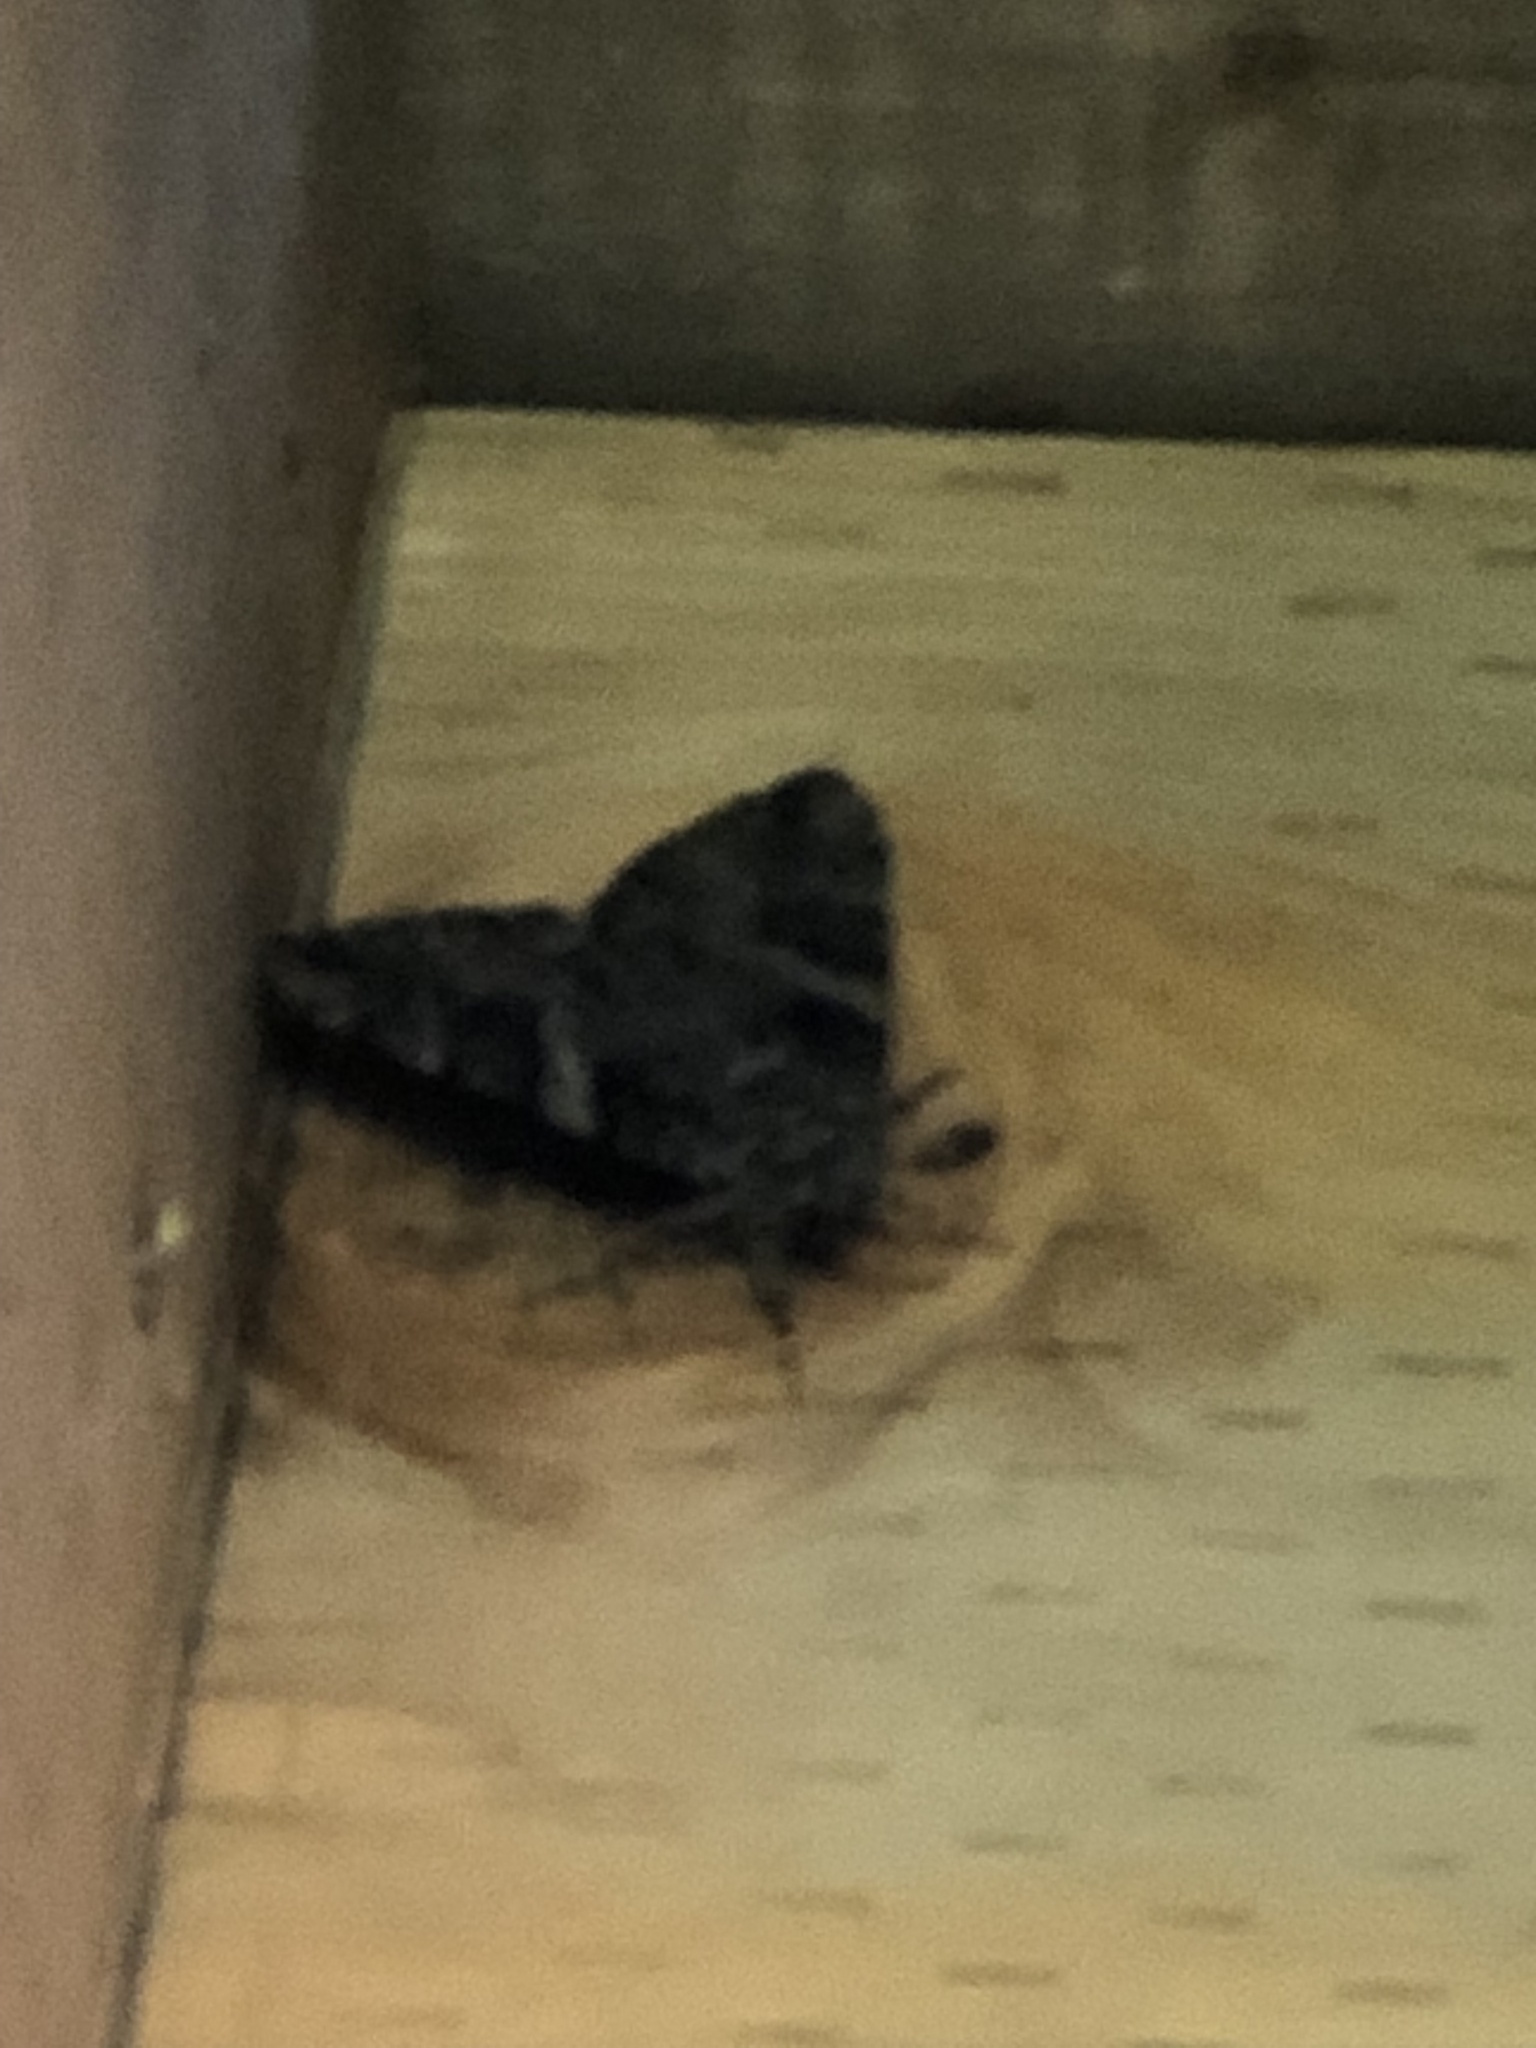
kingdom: Animalia
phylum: Arthropoda
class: Insecta
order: Lepidoptera
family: Erebidae
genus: Catocala
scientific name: Catocala piatrix
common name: The penitent underwing
